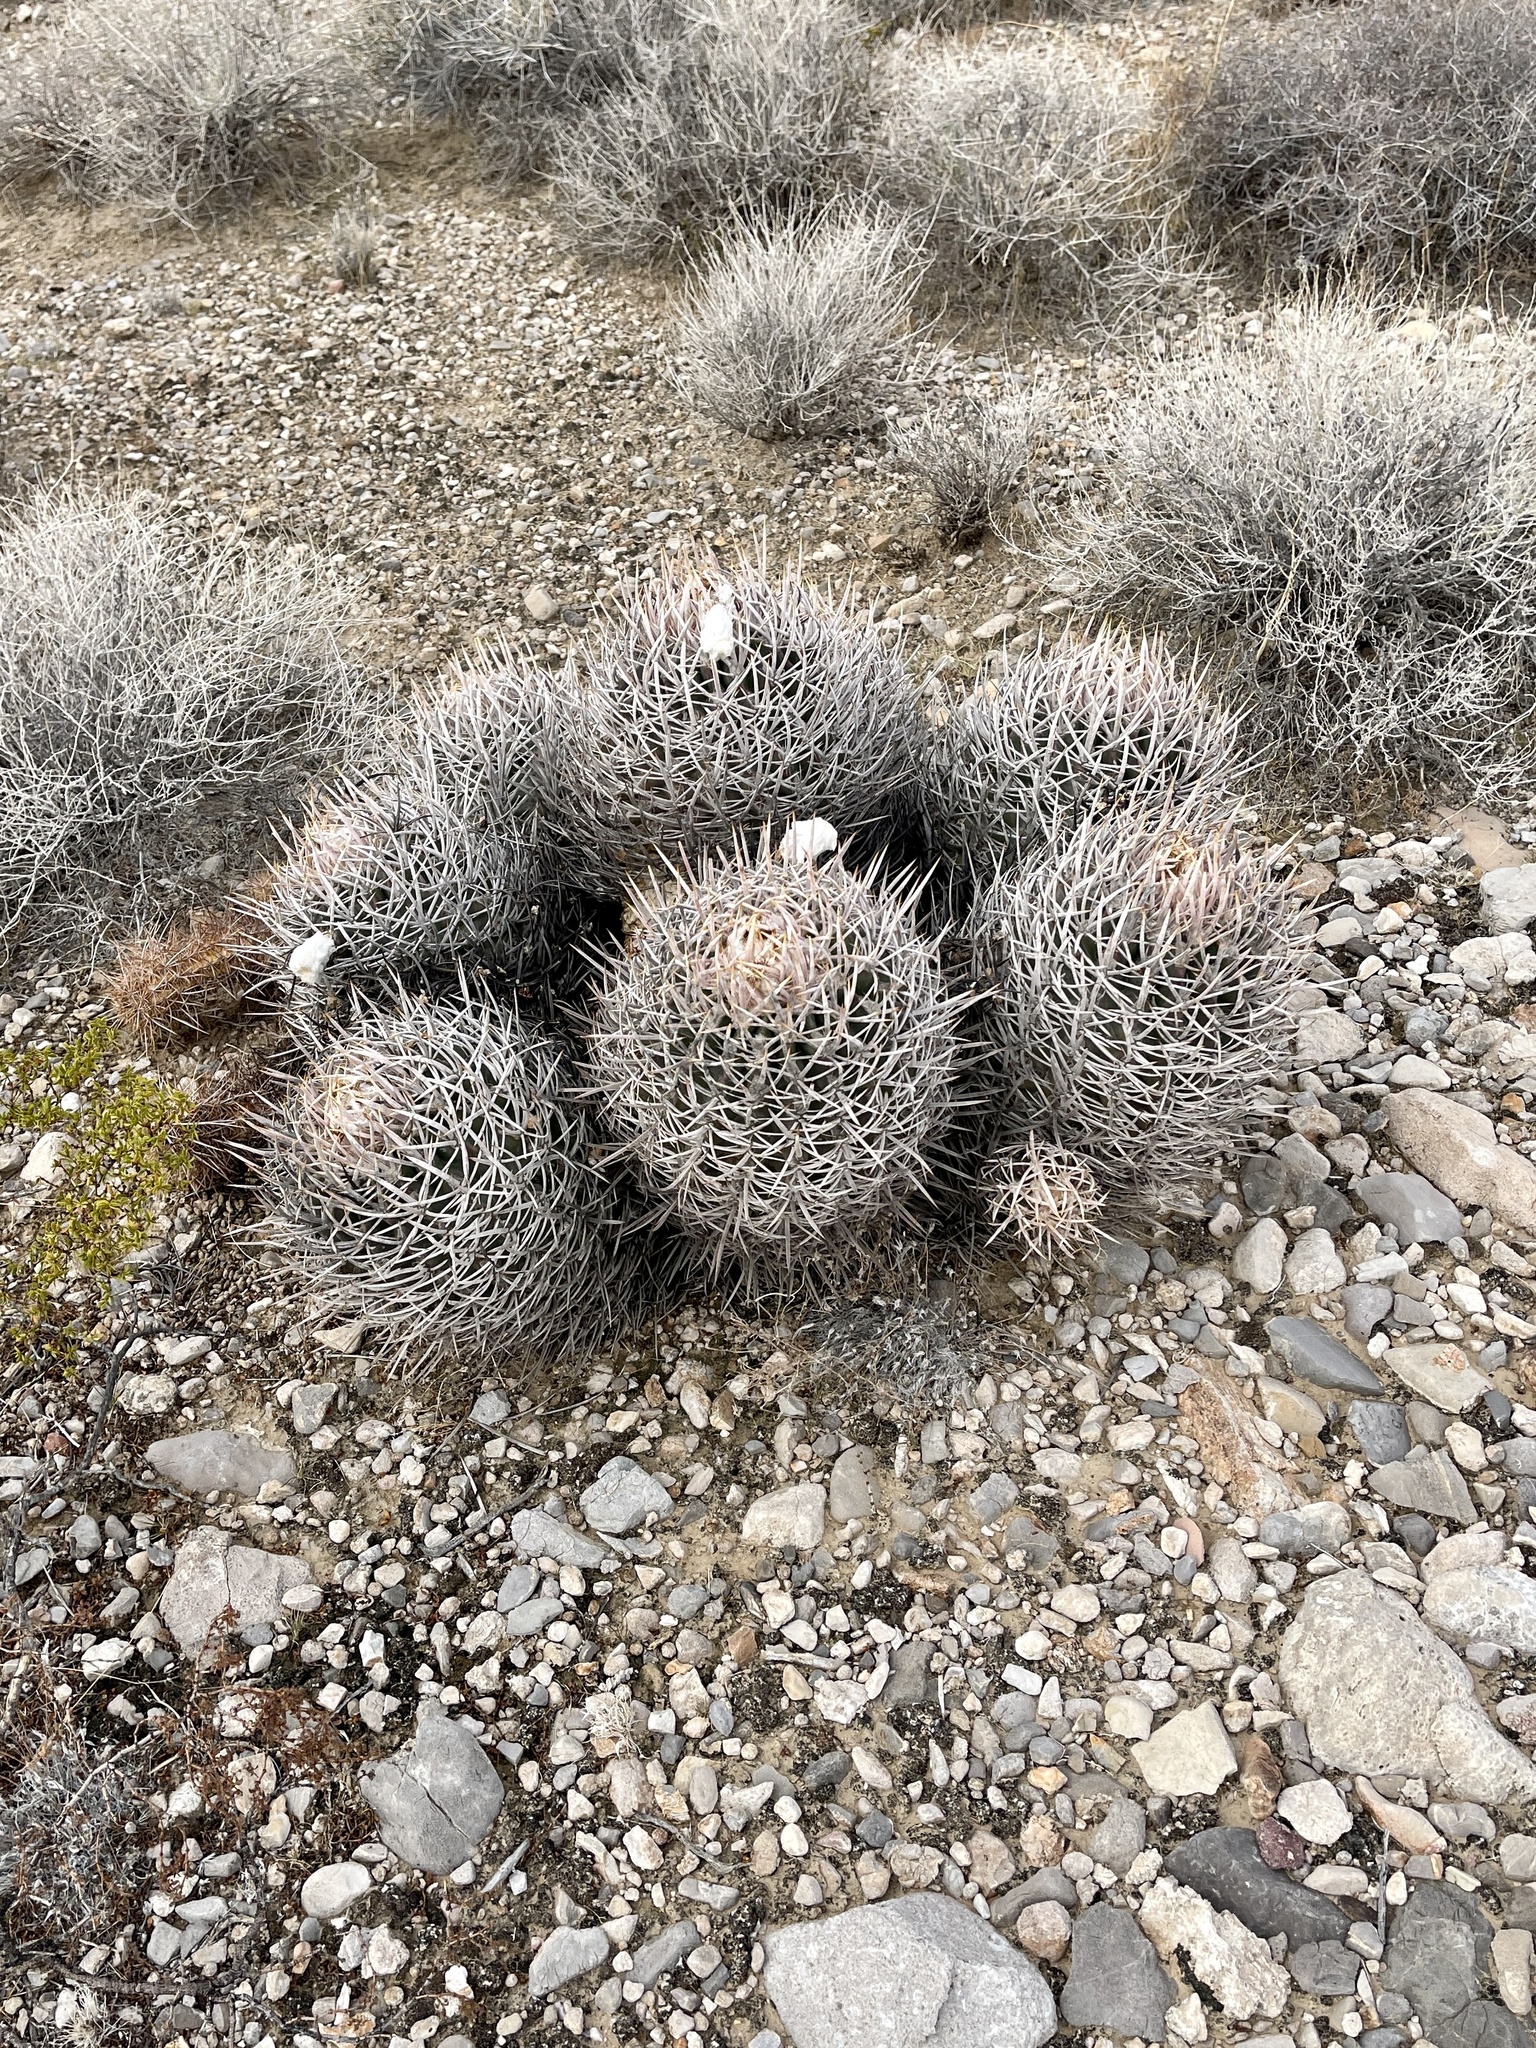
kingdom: Plantae
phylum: Tracheophyta
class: Magnoliopsida
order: Caryophyllales
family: Cactaceae
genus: Echinocactus
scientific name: Echinocactus polycephalus
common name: Cottontop cactus
